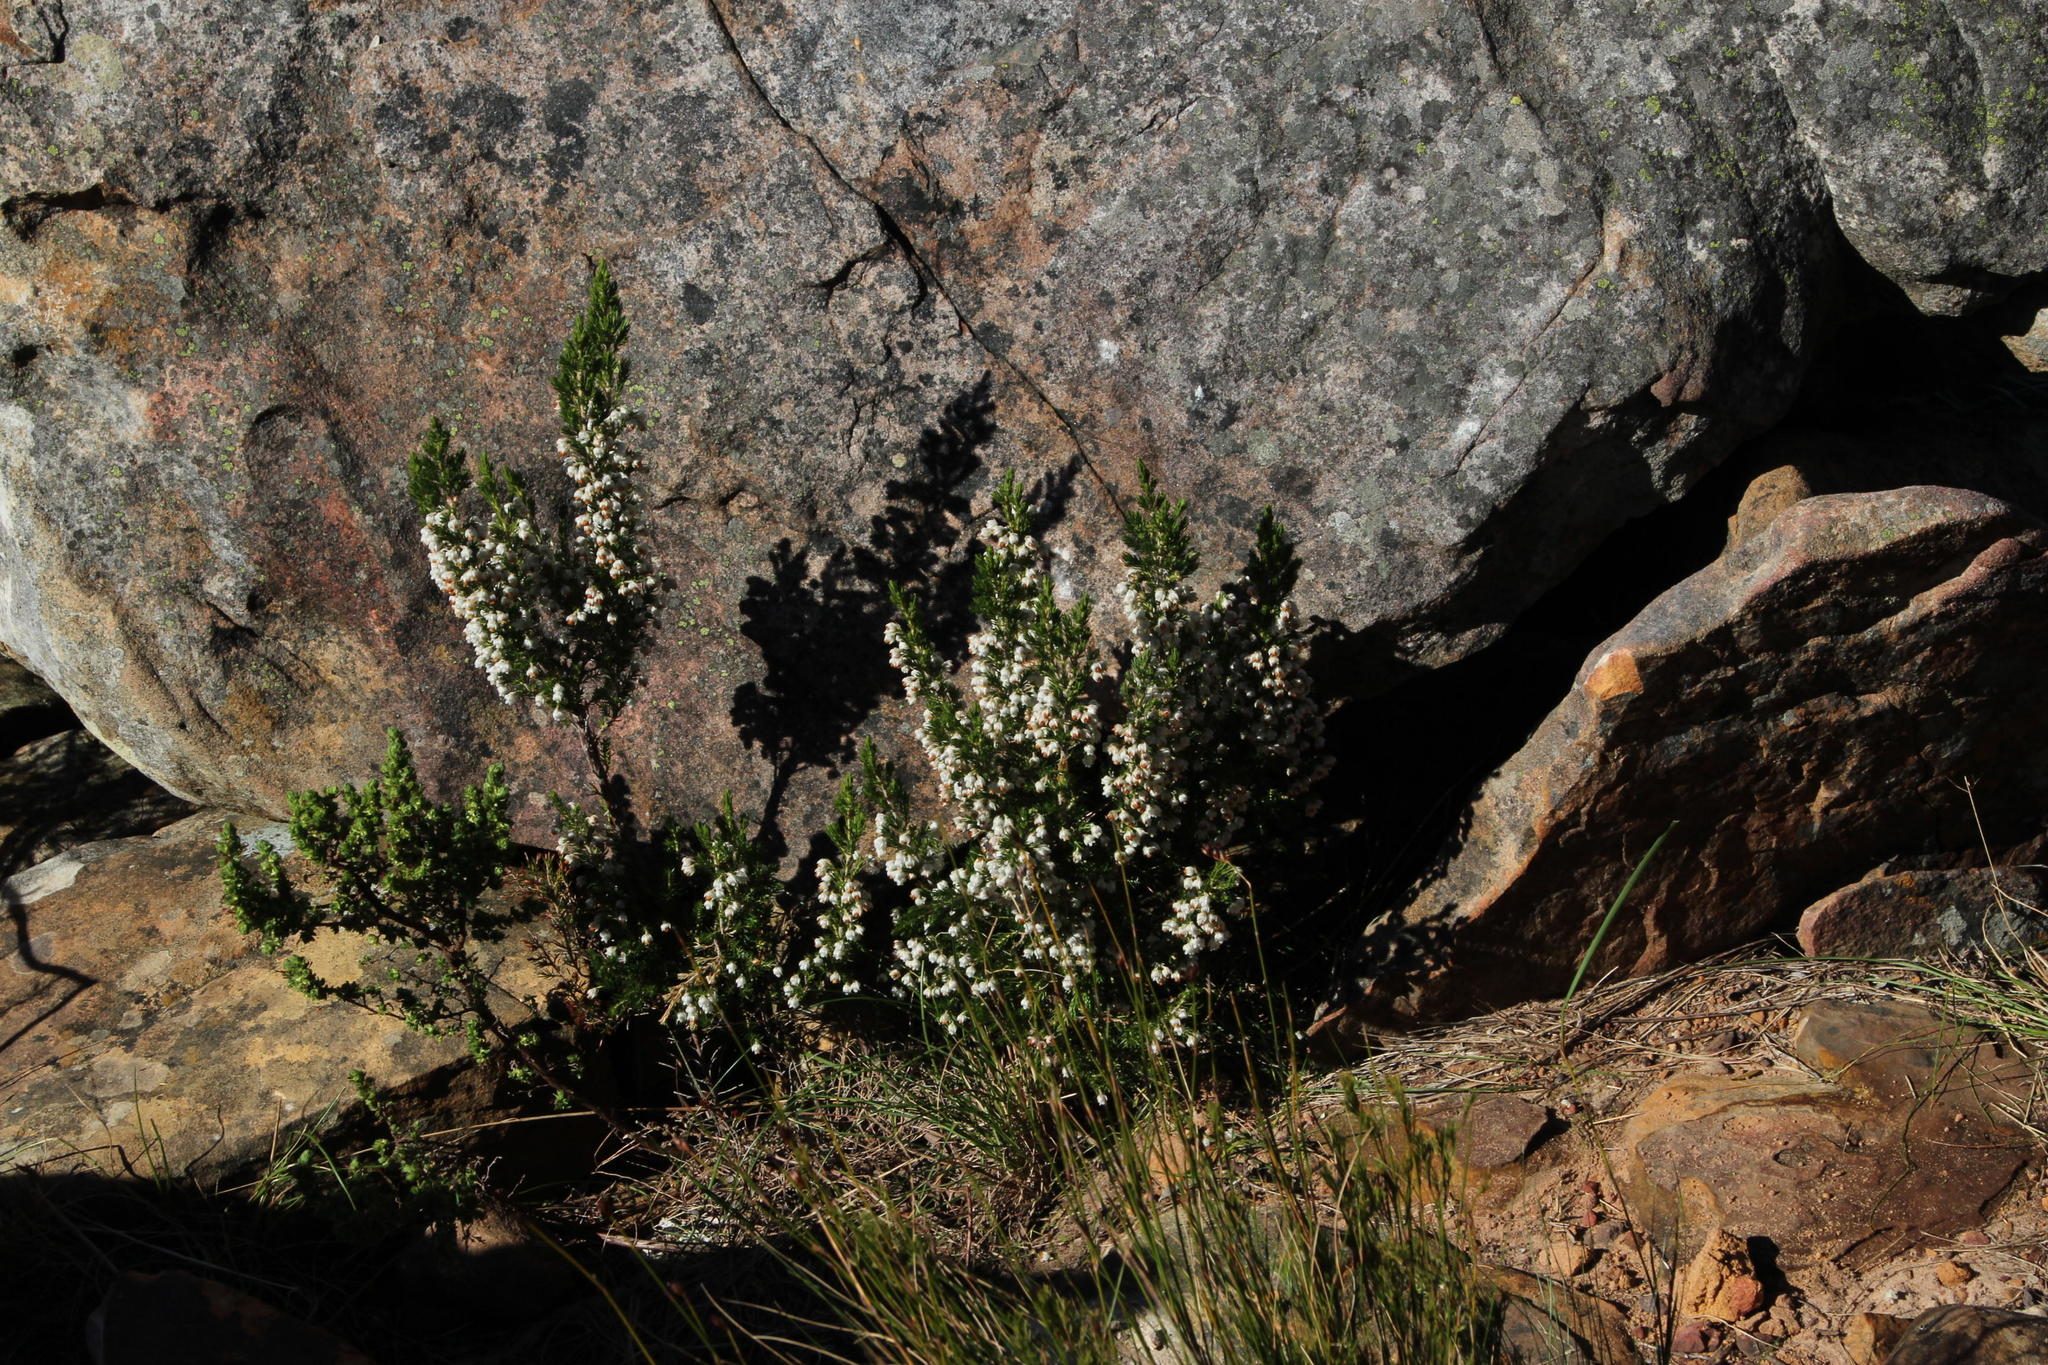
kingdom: Plantae
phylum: Tracheophyta
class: Magnoliopsida
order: Ericales
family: Ericaceae
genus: Erica
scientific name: Erica triflora
